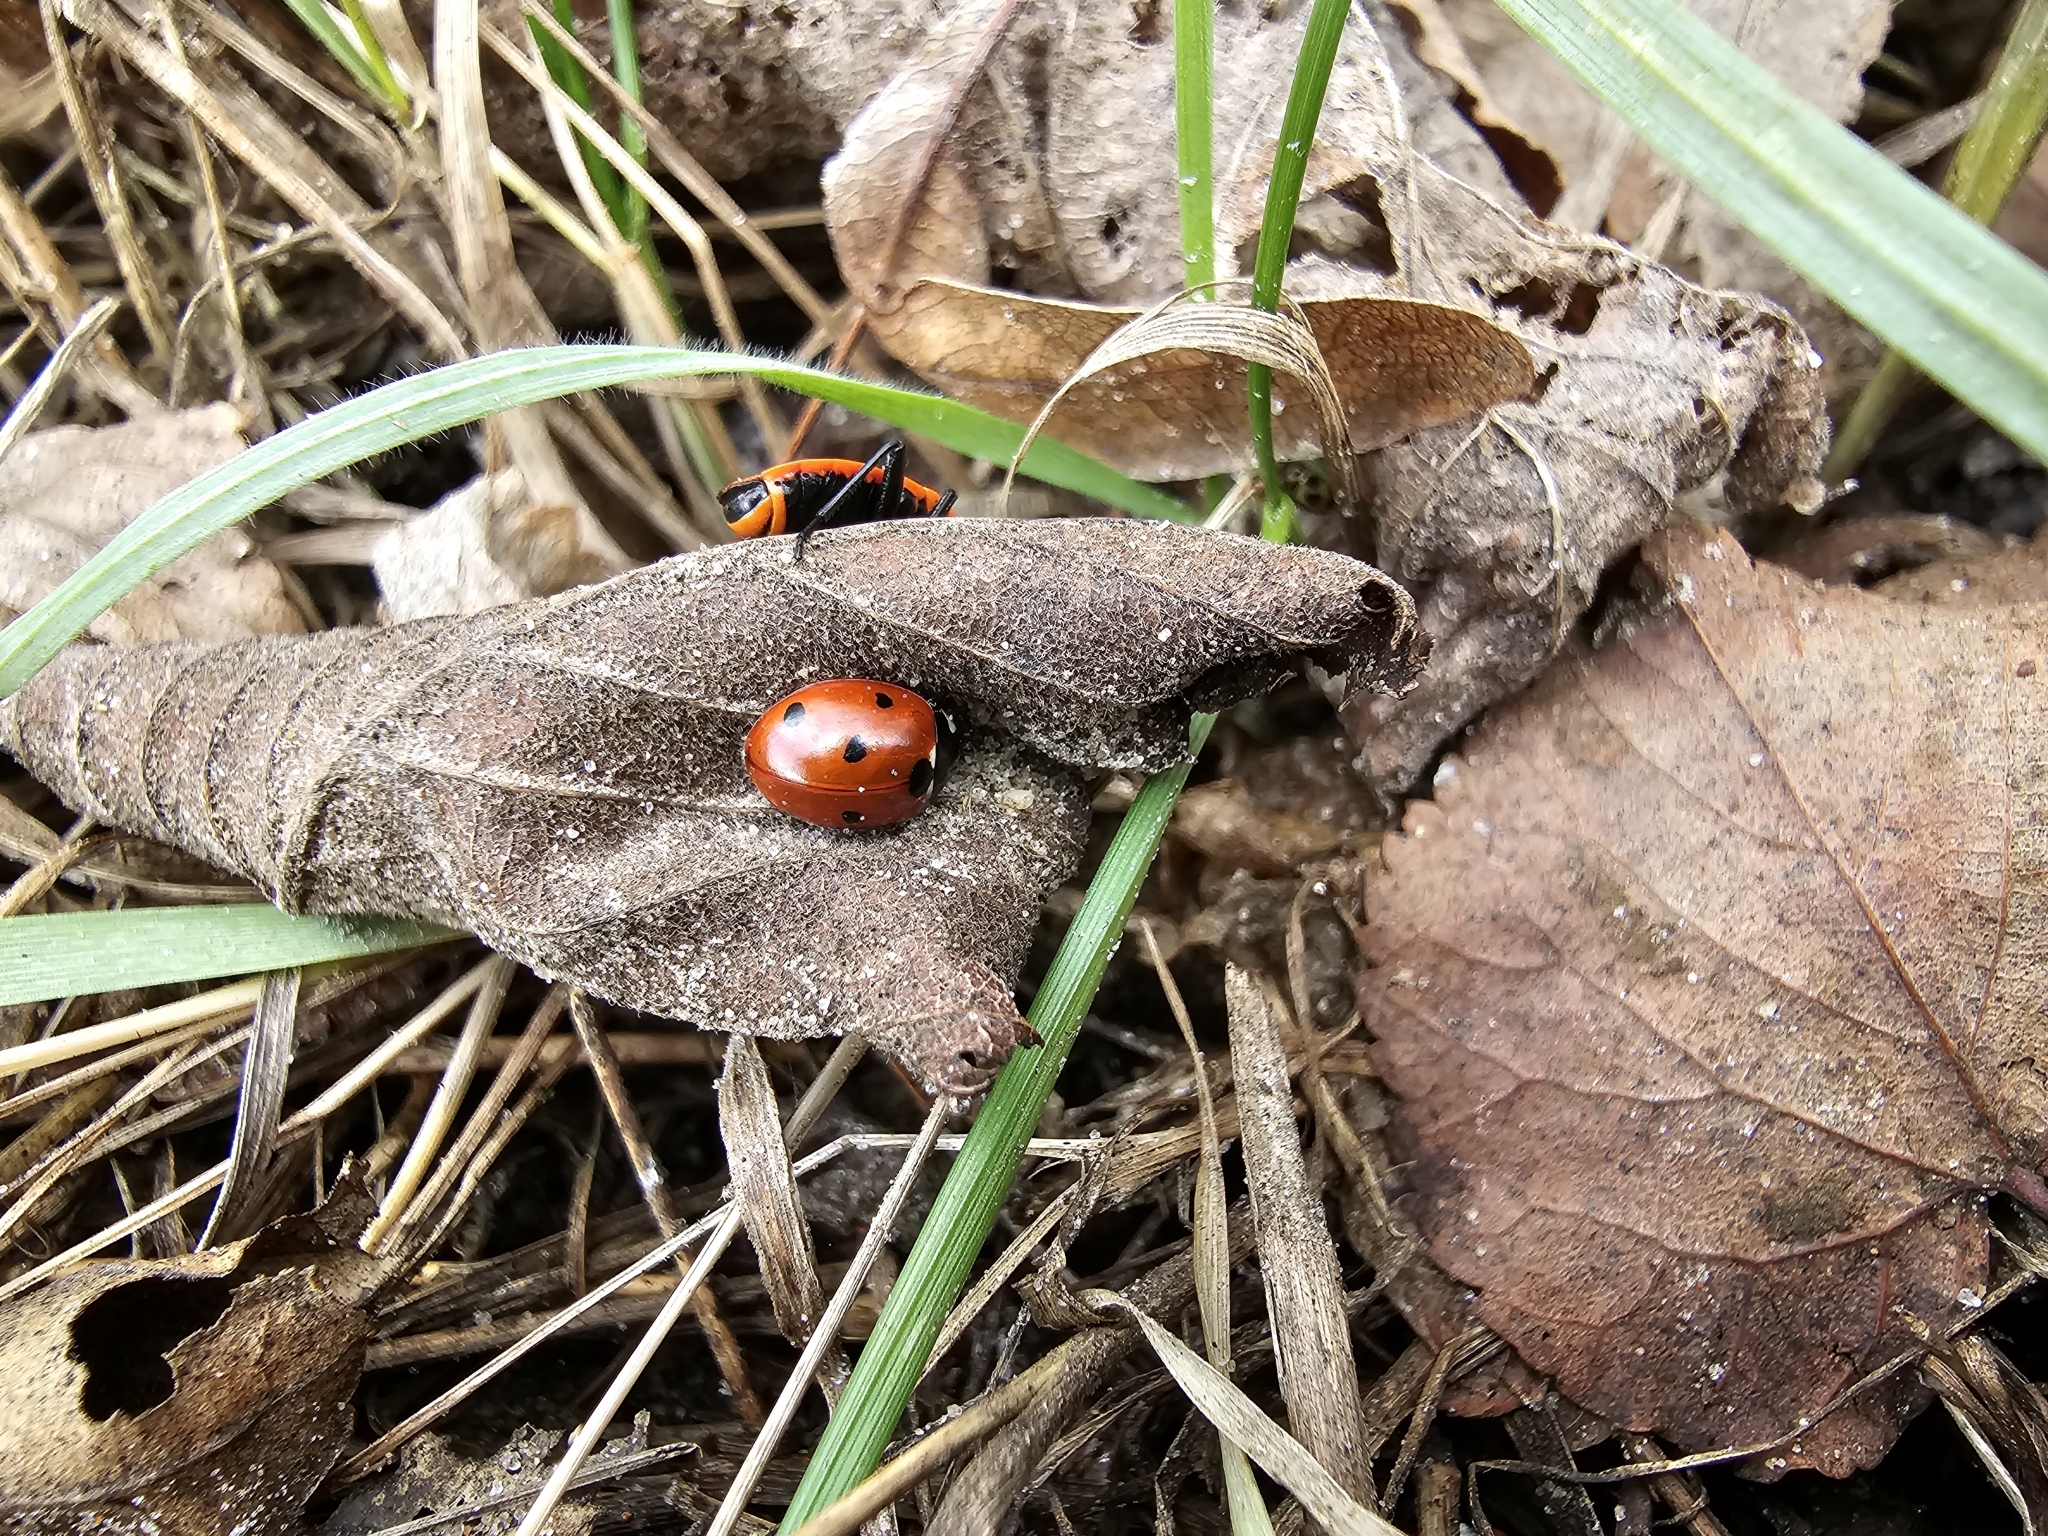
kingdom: Animalia
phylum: Arthropoda
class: Insecta
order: Coleoptera
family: Coccinellidae
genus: Coccinella
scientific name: Coccinella septempunctata
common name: Sevenspotted lady beetle
